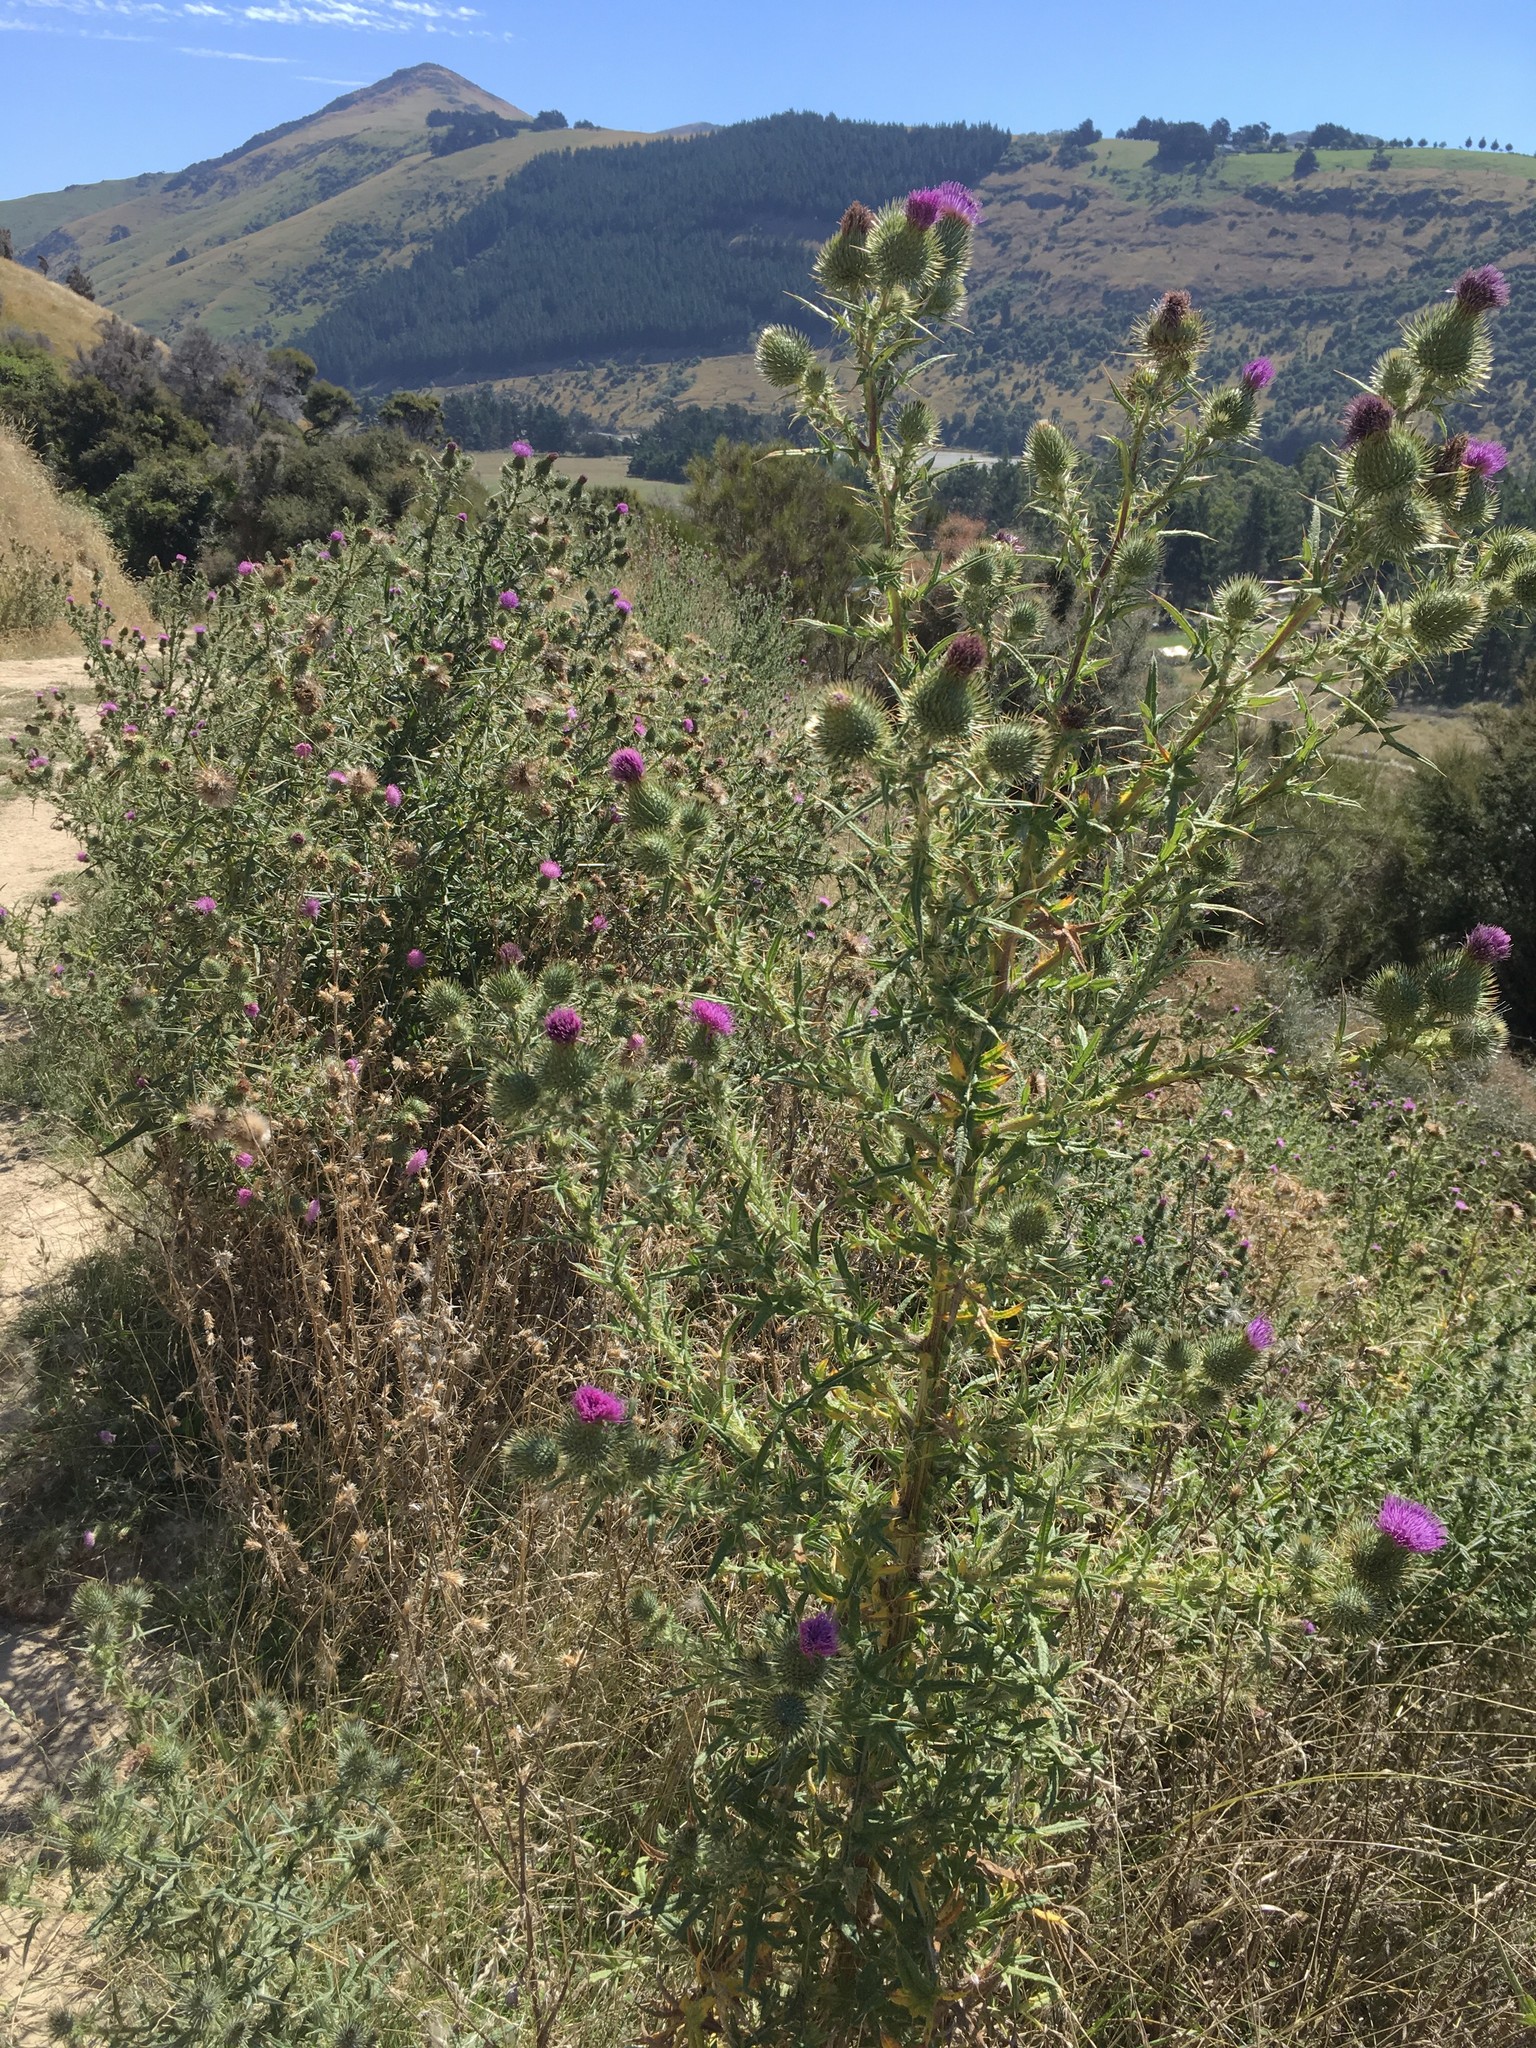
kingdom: Plantae
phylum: Tracheophyta
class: Magnoliopsida
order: Asterales
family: Asteraceae
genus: Cirsium
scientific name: Cirsium vulgare
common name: Bull thistle
